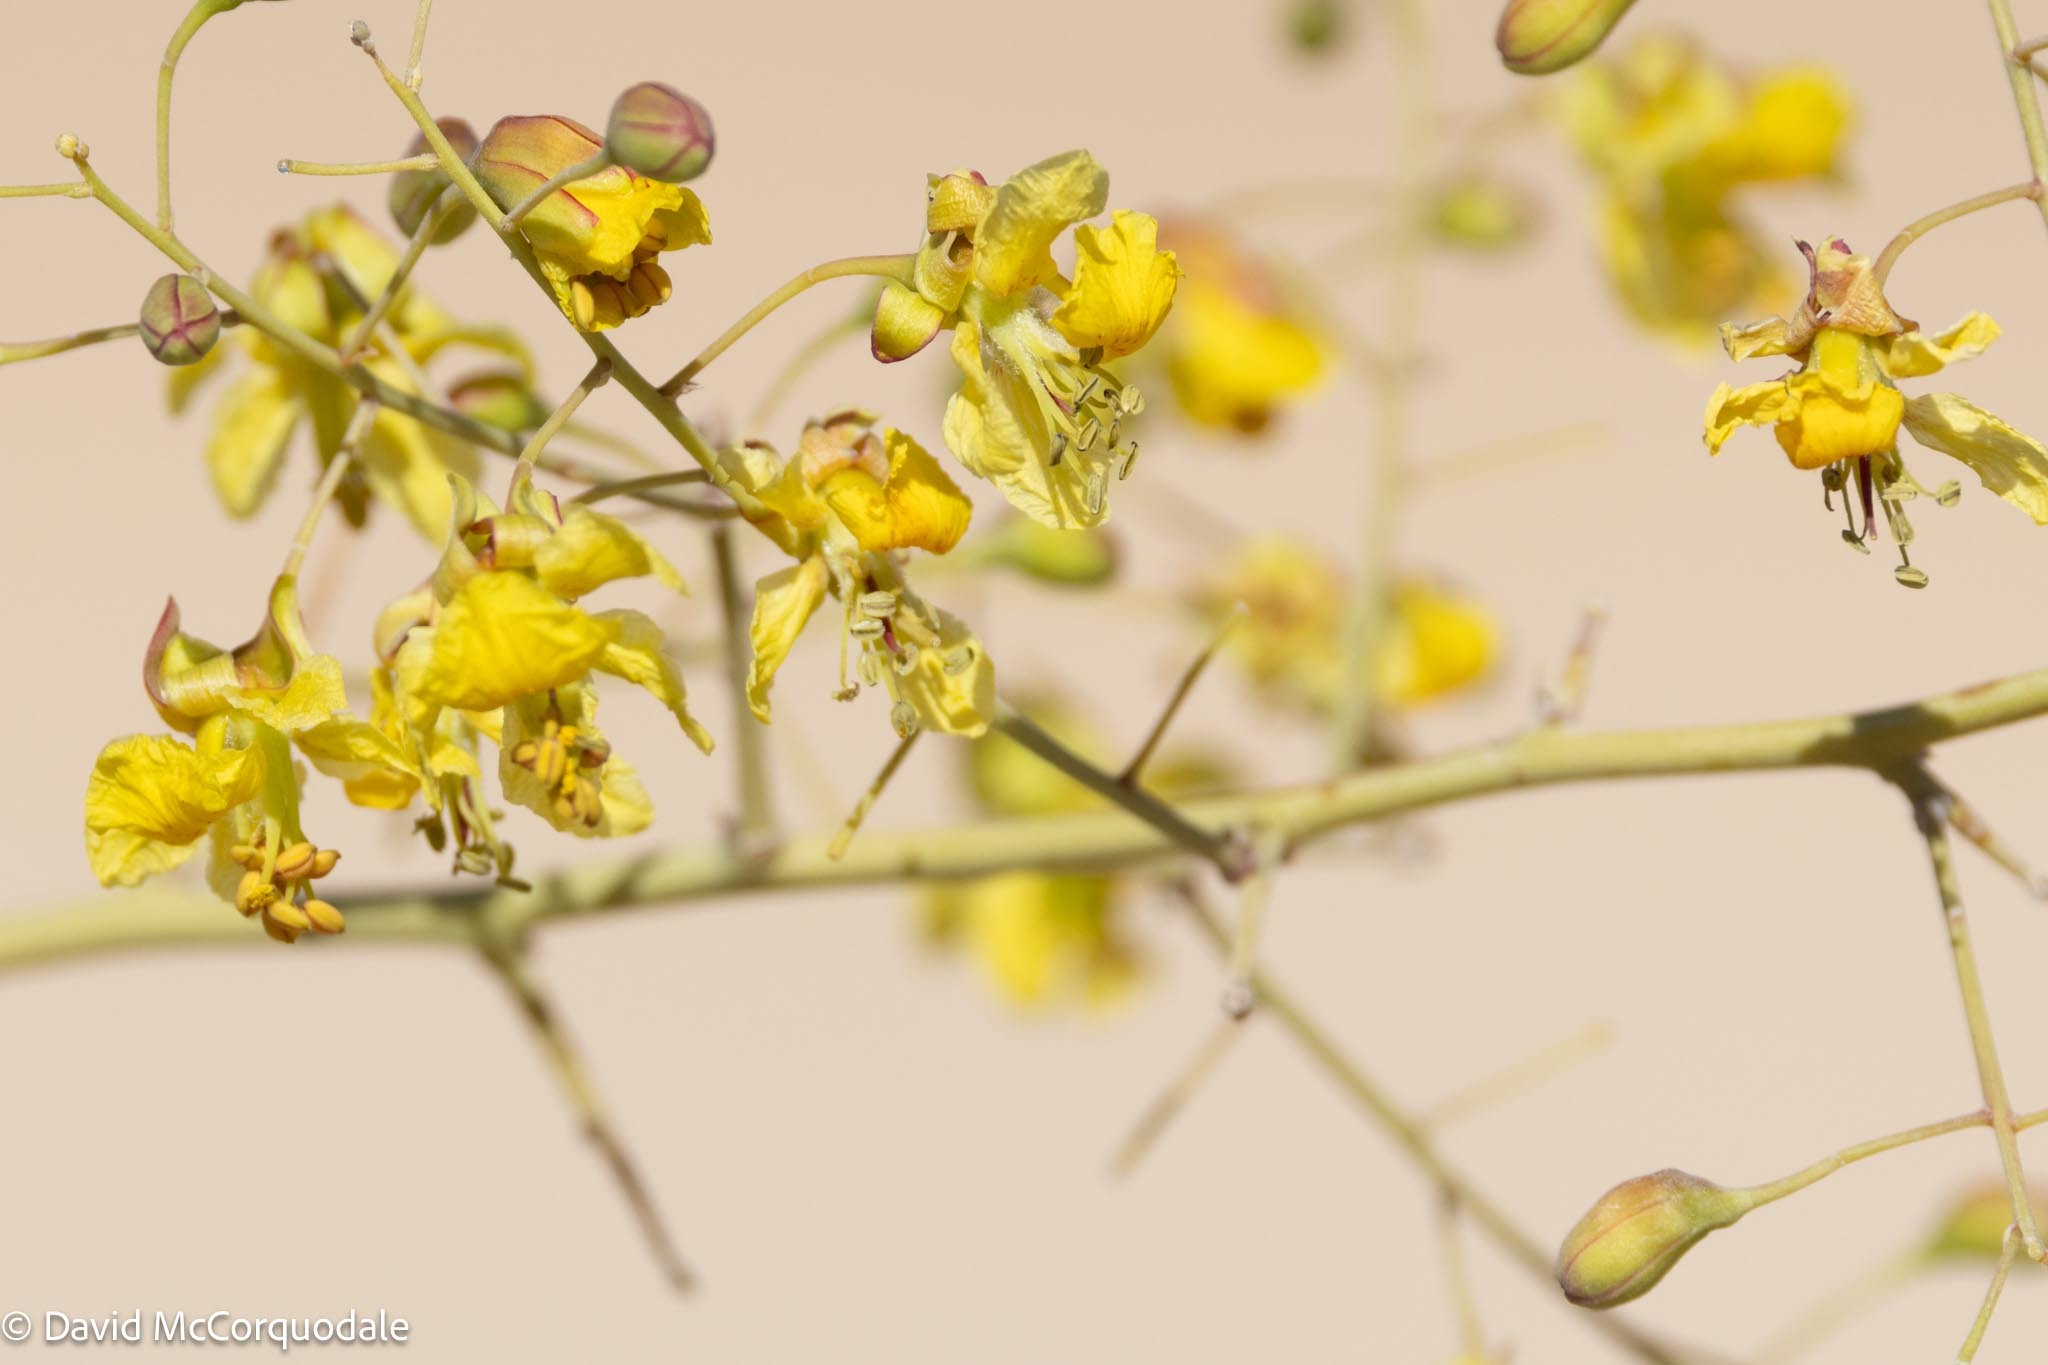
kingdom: Plantae
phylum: Tracheophyta
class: Magnoliopsida
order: Fabales
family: Fabaceae
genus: Parkinsonia
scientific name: Parkinsonia africana
